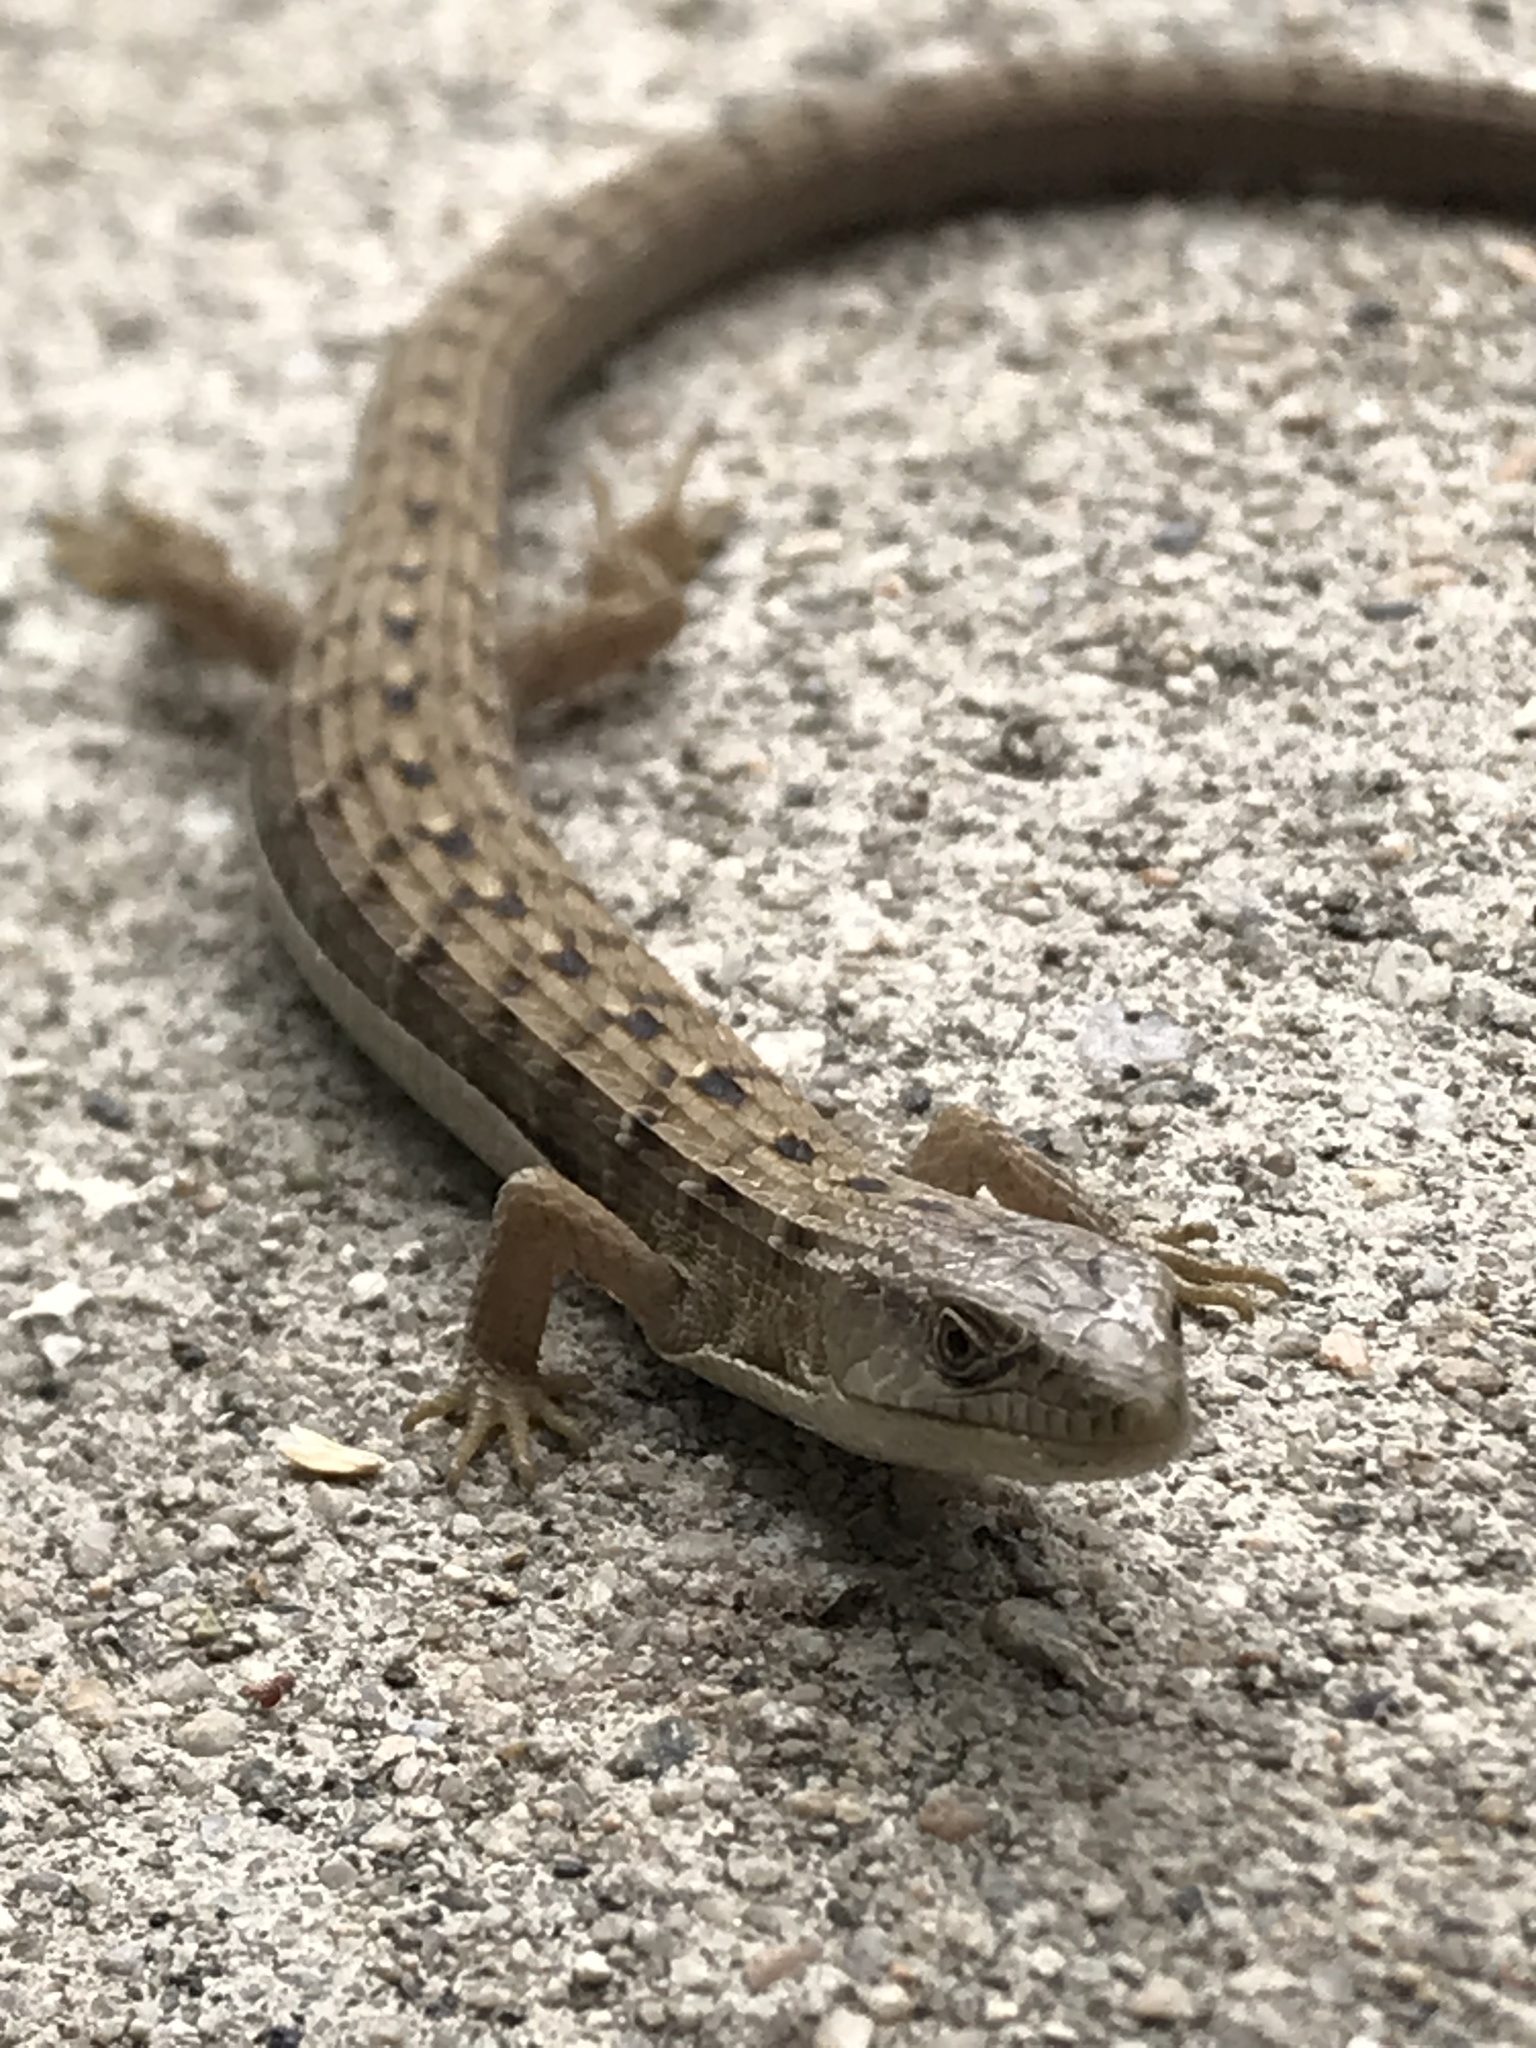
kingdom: Animalia
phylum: Chordata
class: Squamata
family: Anguidae
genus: Elgaria
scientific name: Elgaria multicarinata
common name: Southern alligator lizard
